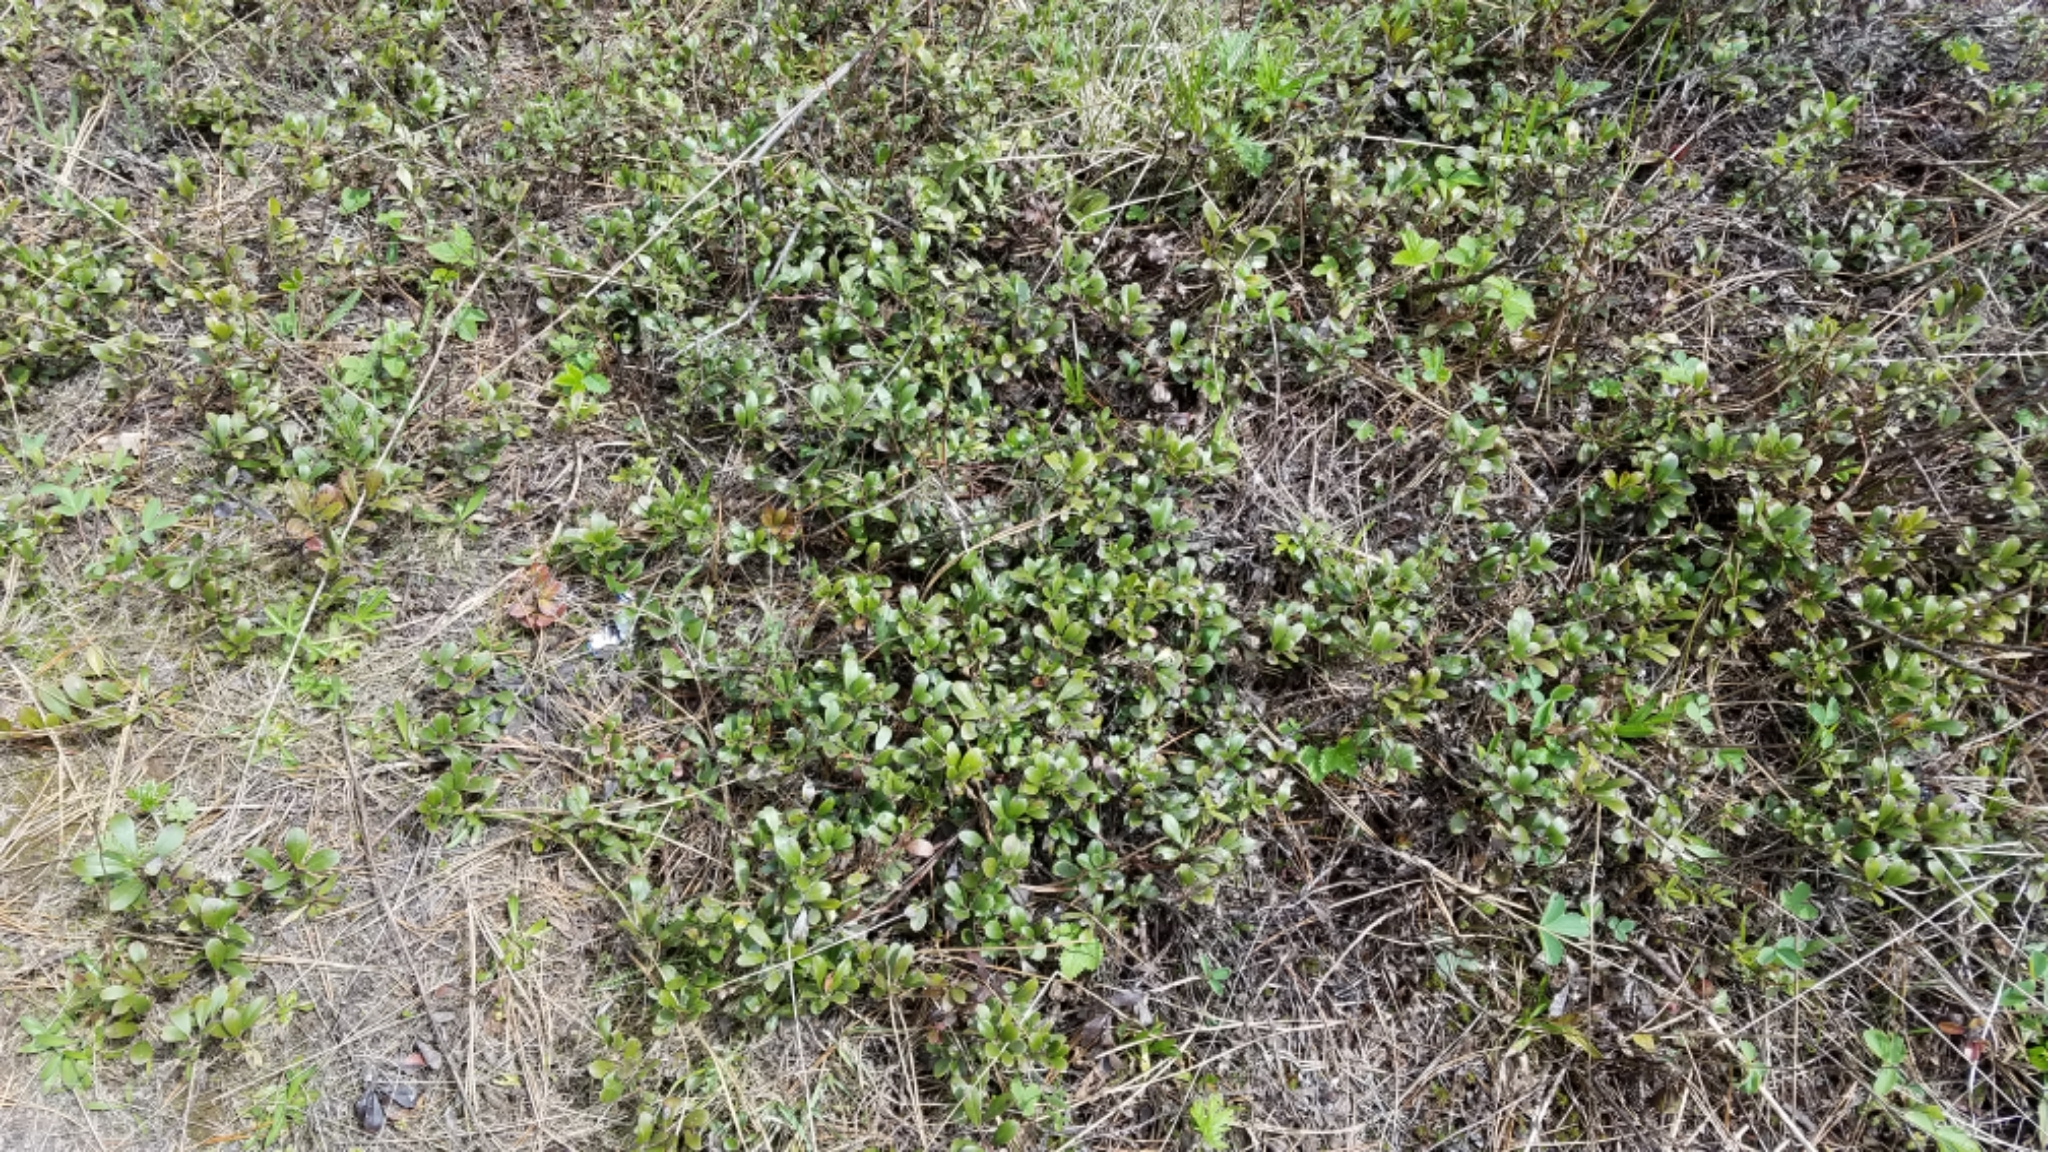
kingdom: Plantae
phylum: Tracheophyta
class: Magnoliopsida
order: Ericales
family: Ericaceae
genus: Arctostaphylos
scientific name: Arctostaphylos uva-ursi
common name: Bearberry
